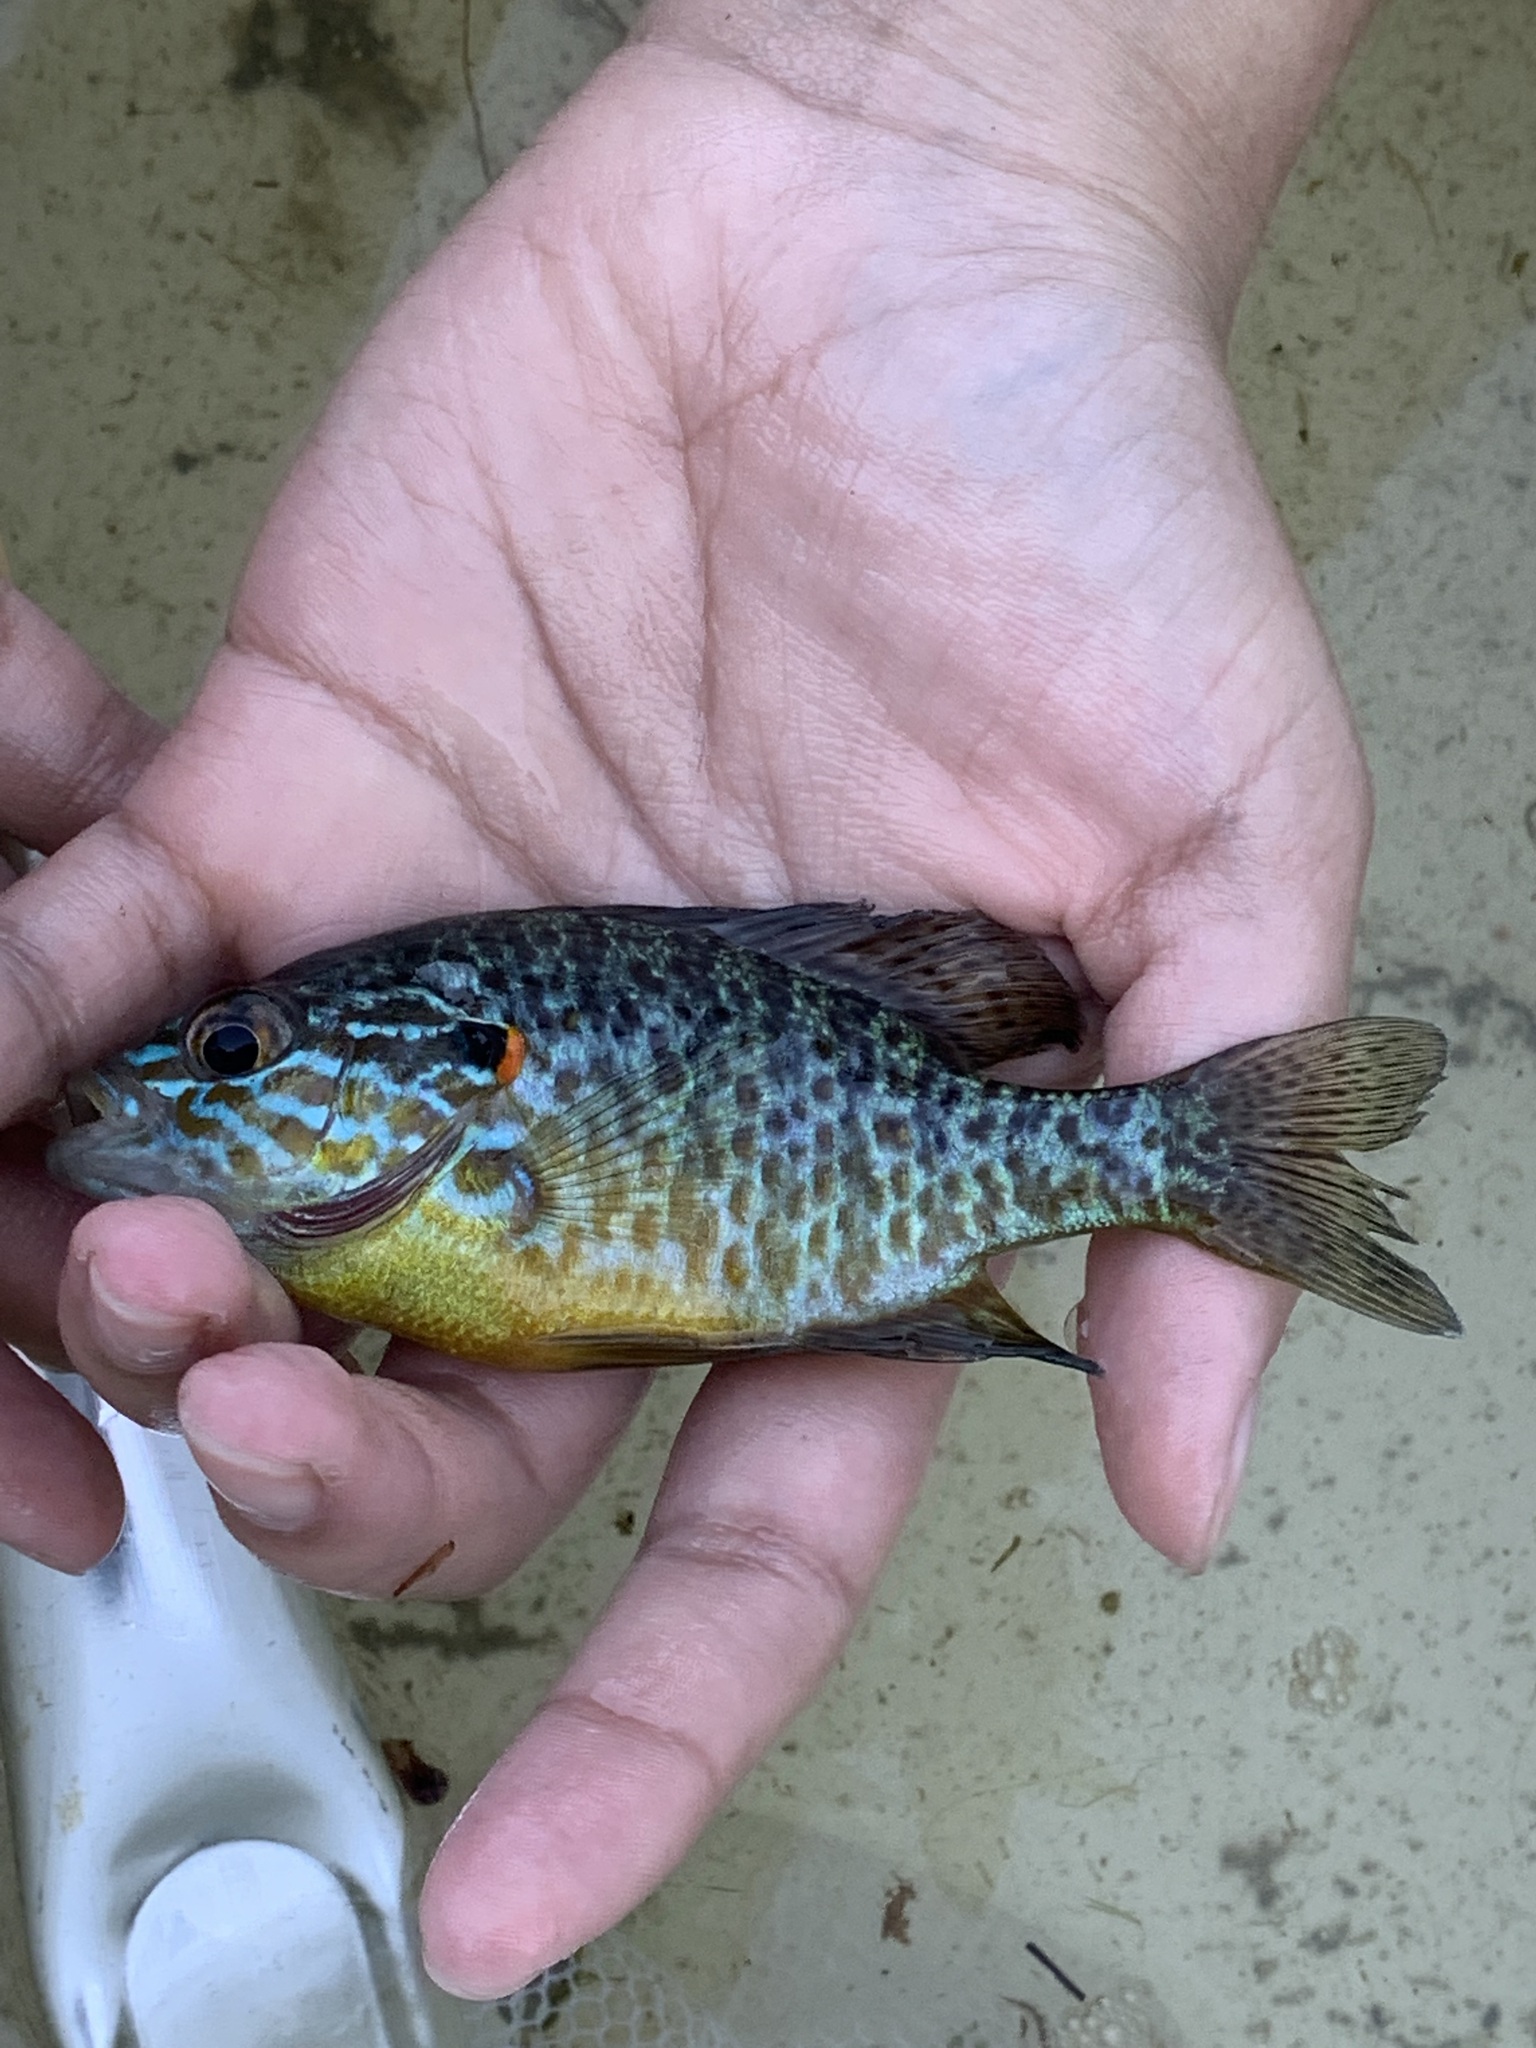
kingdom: Animalia
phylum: Chordata
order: Perciformes
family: Centrarchidae
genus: Lepomis
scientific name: Lepomis gibbosus
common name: Pumpkinseed
